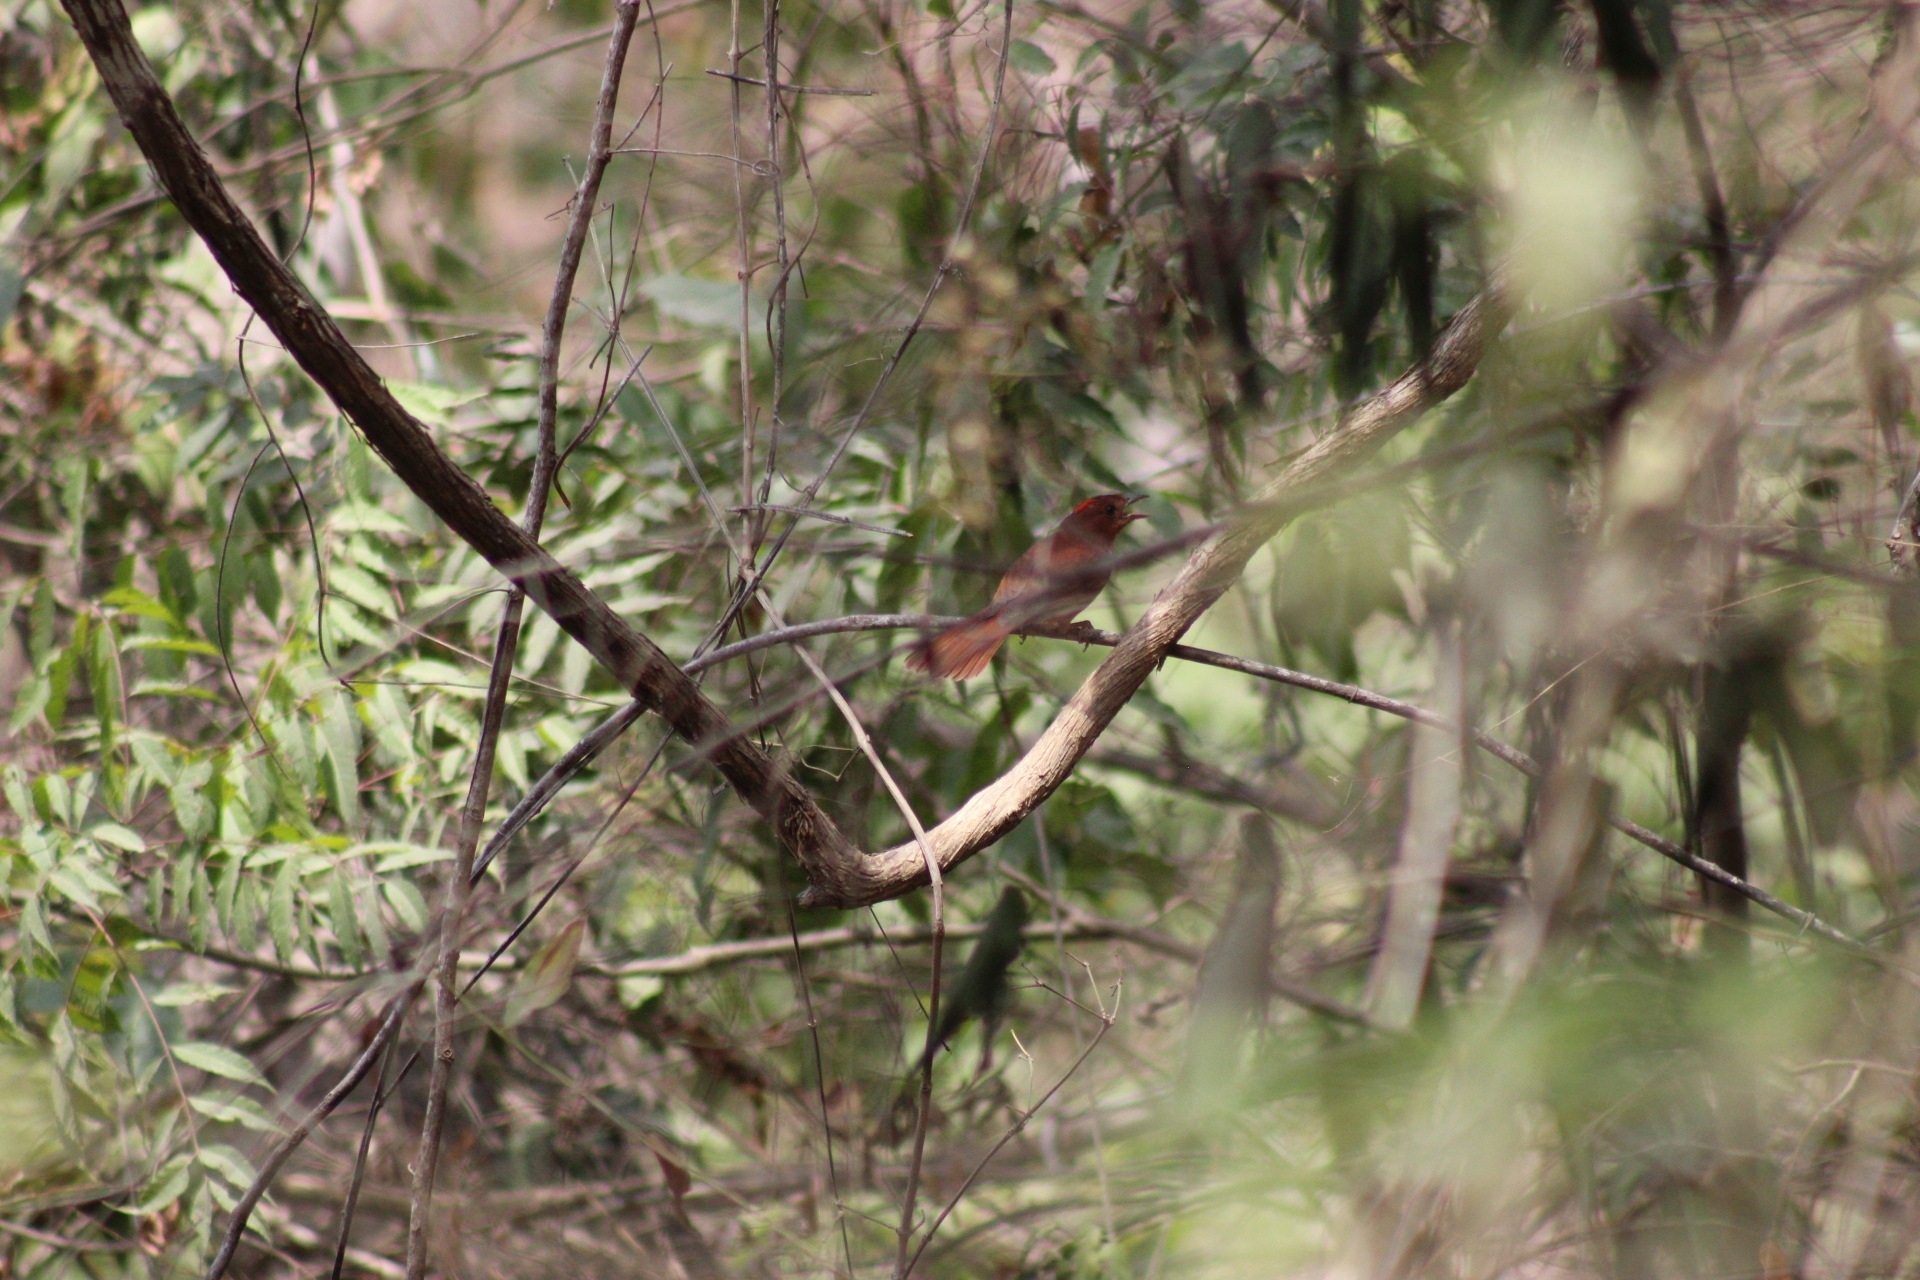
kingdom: Animalia
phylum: Chordata
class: Aves
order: Passeriformes
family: Cardinalidae
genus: Habia
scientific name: Habia rubica
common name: Red-crowned ant-tanager
